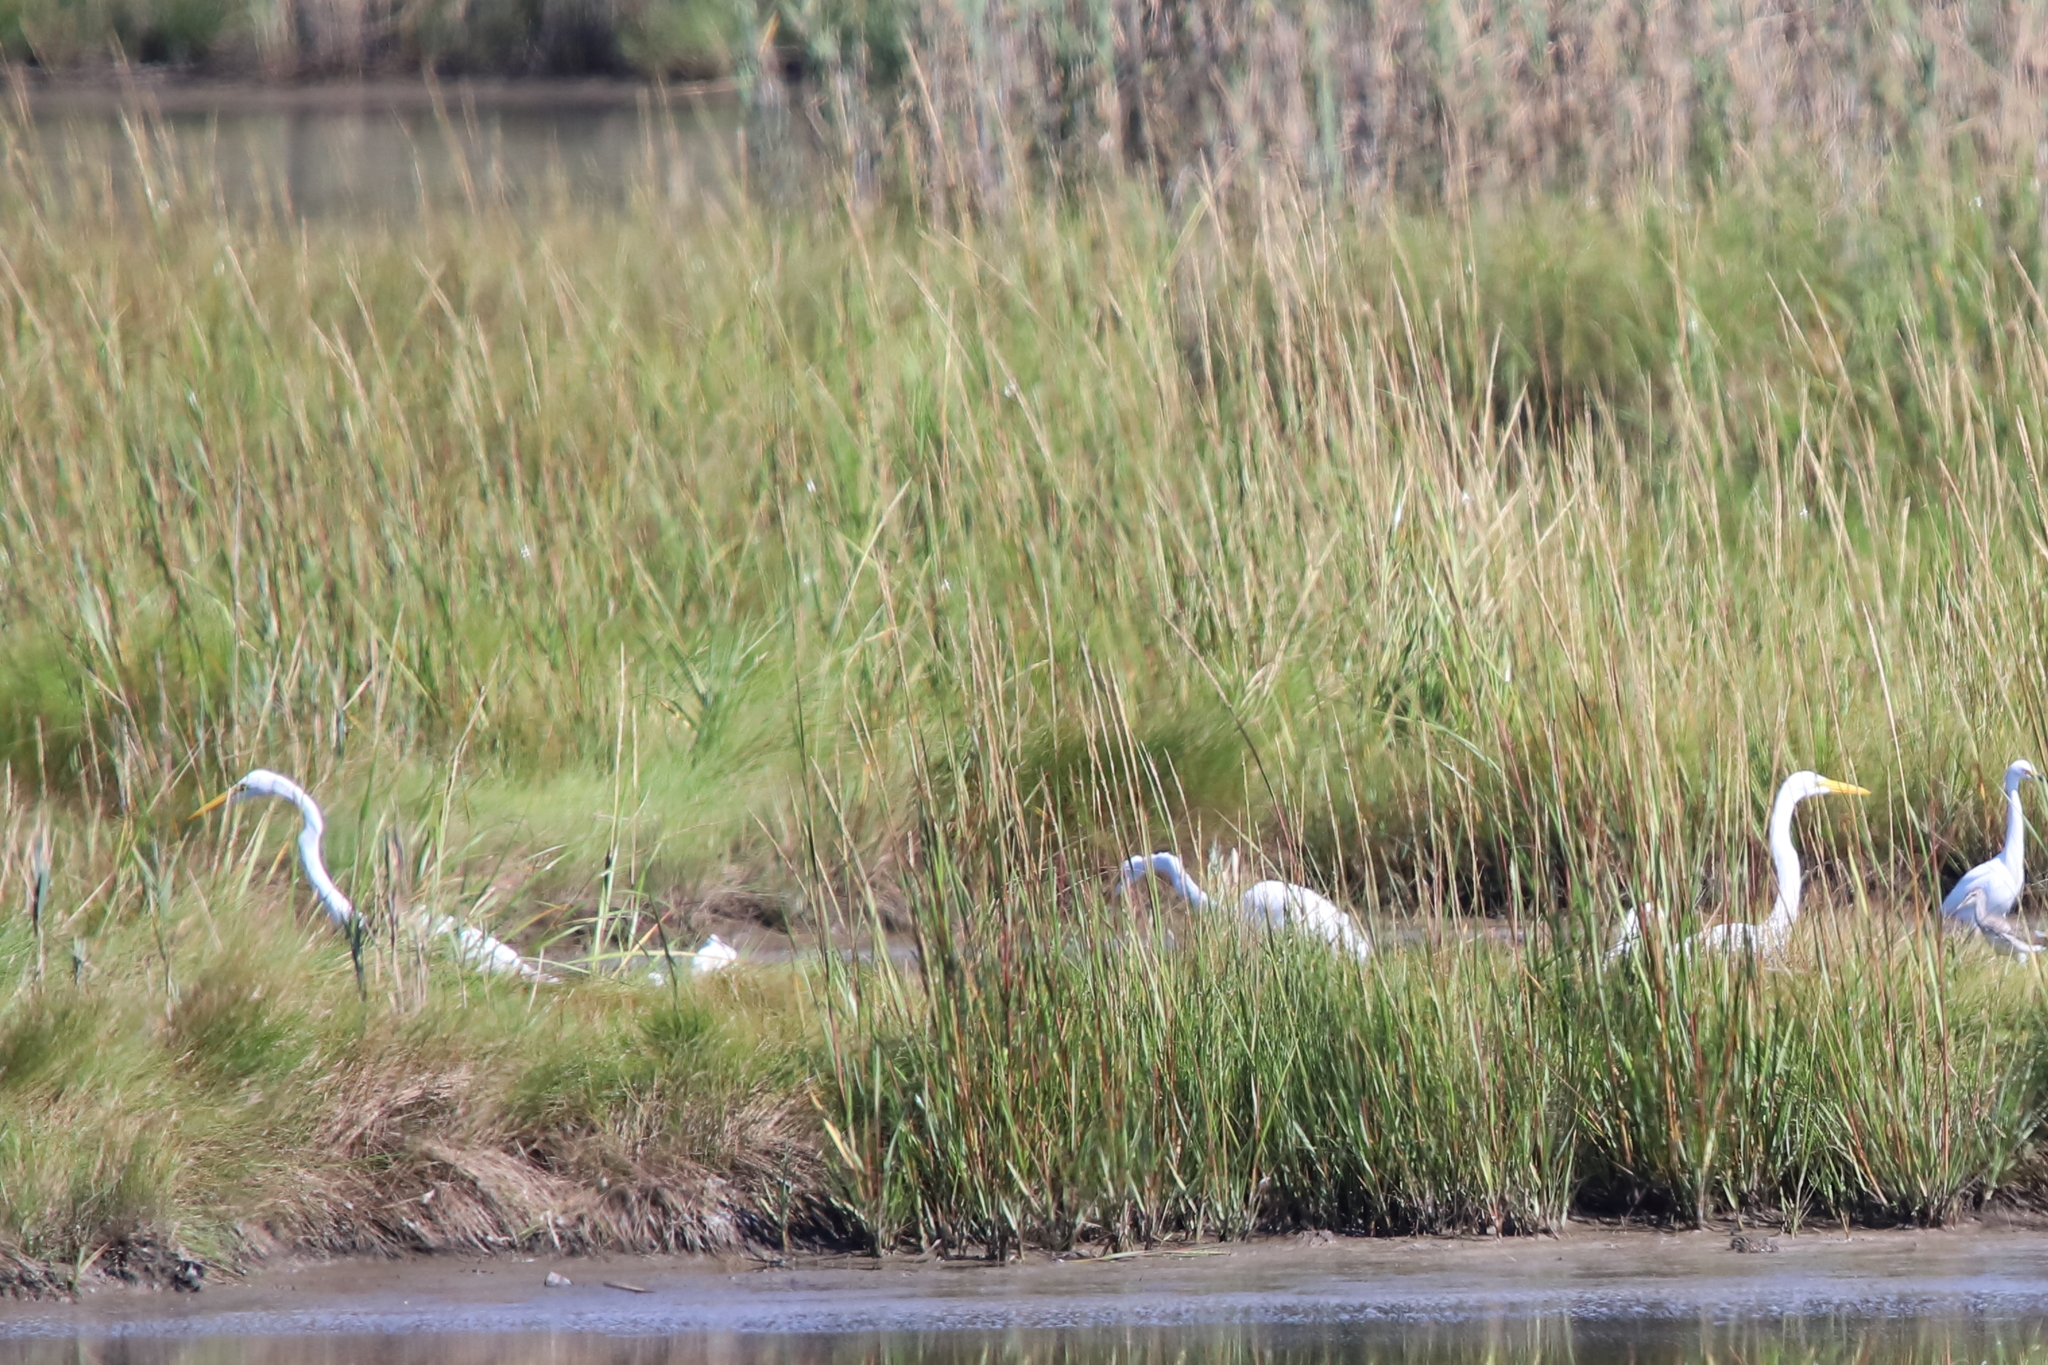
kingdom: Animalia
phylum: Chordata
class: Aves
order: Pelecaniformes
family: Ardeidae
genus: Ardea
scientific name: Ardea alba
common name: Great egret
